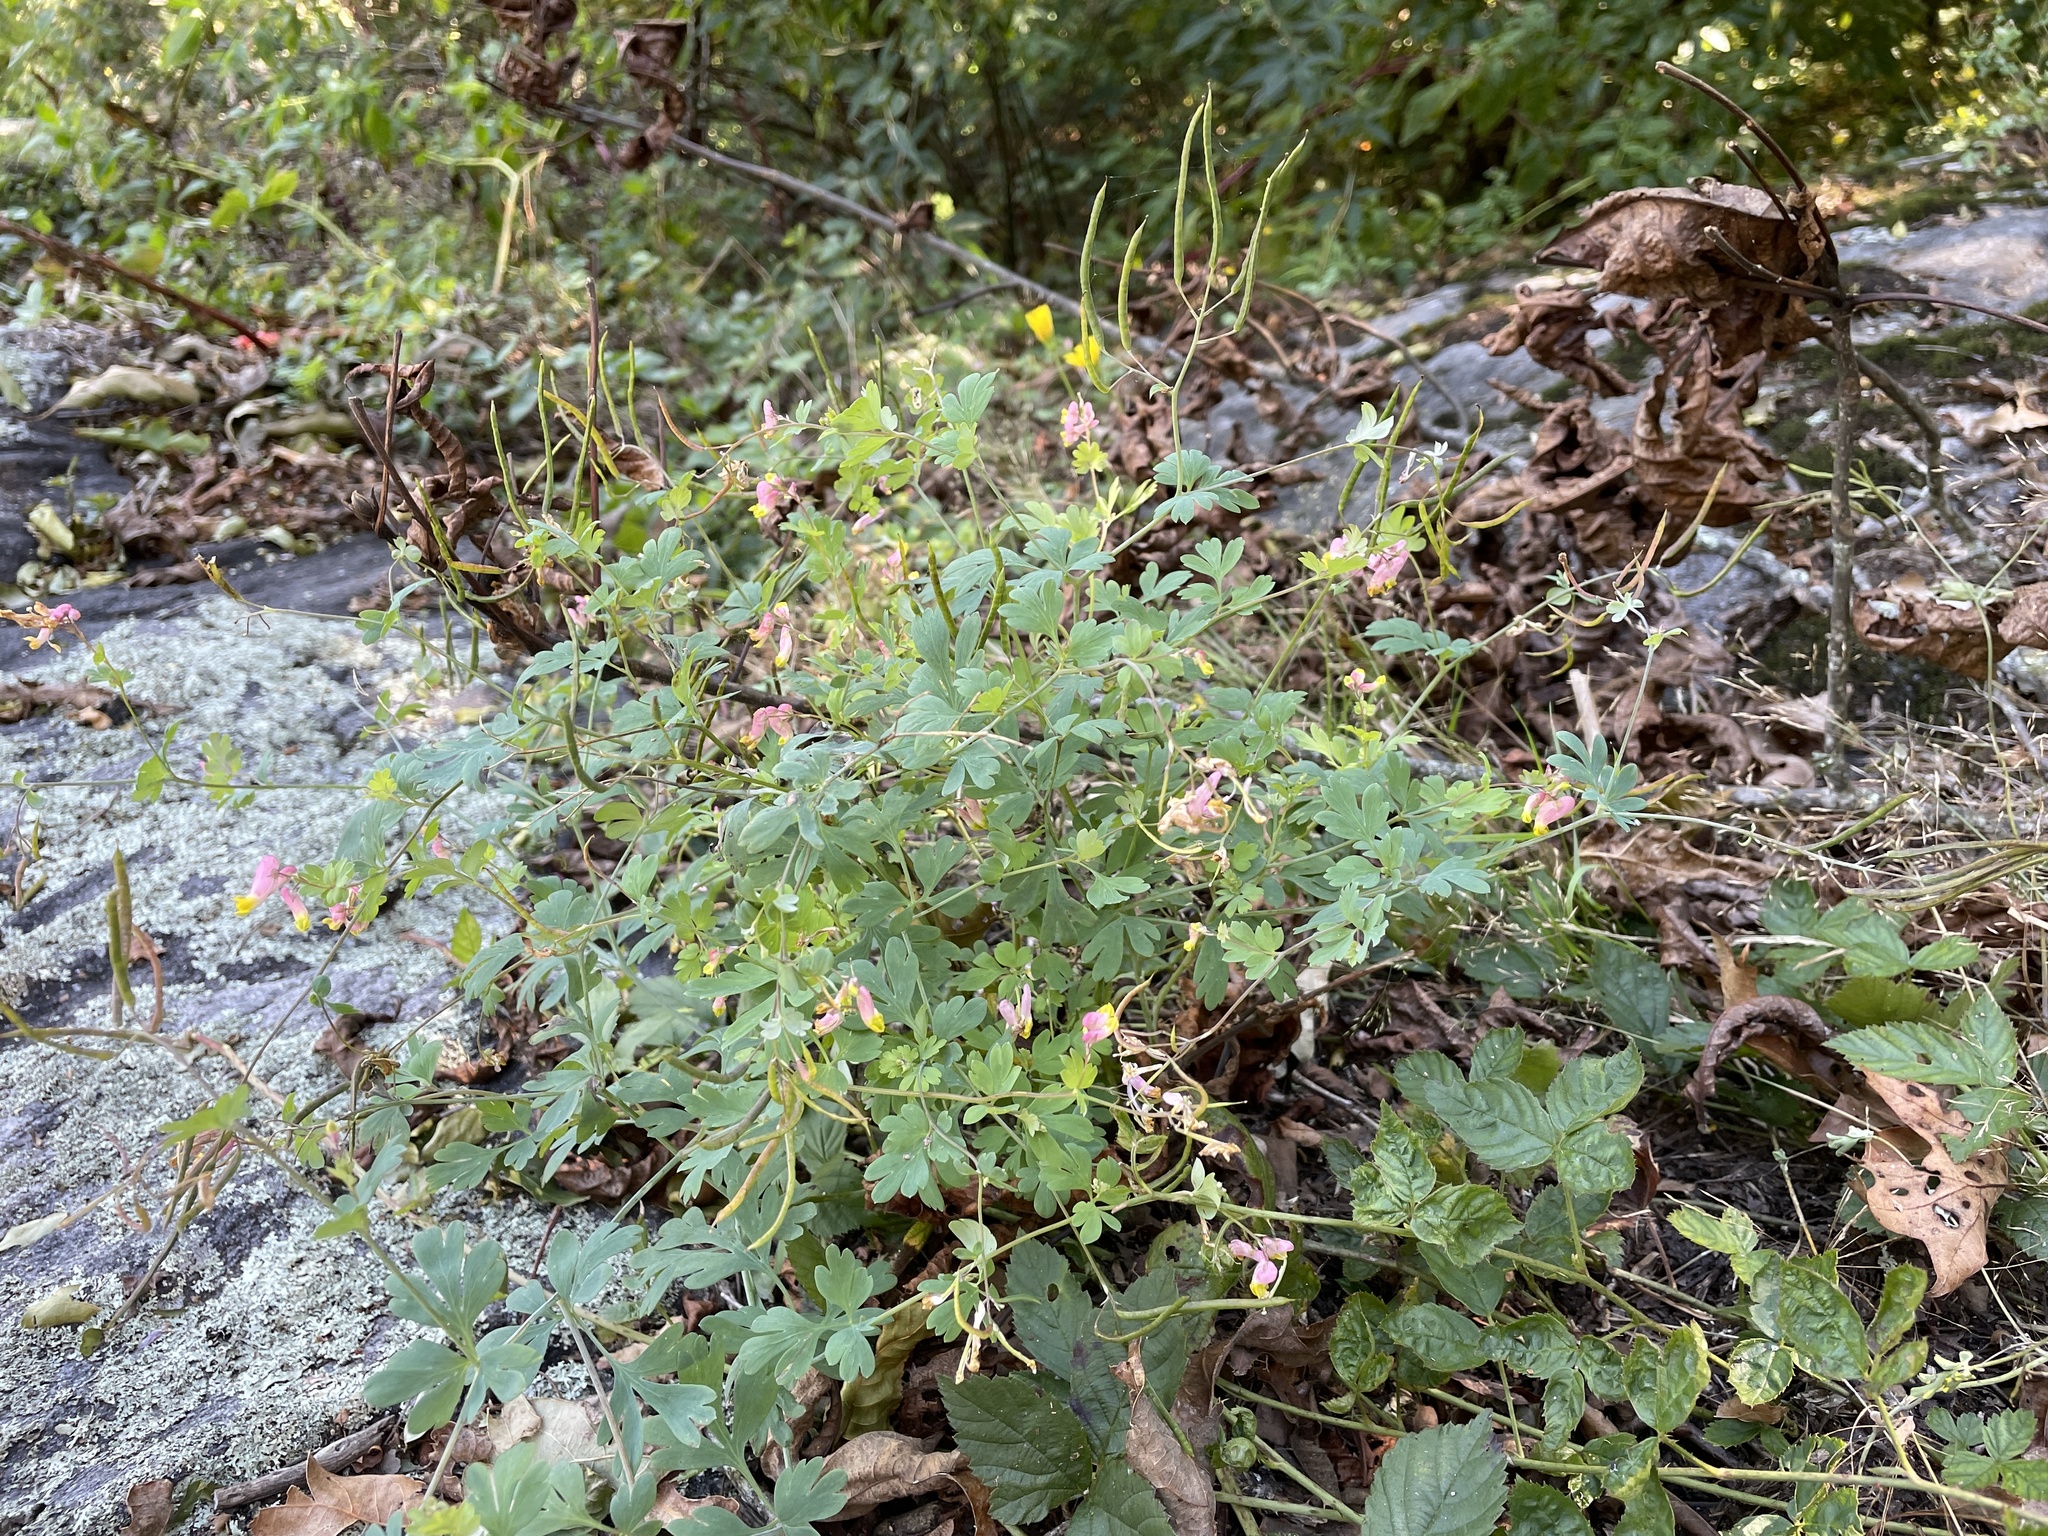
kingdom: Plantae
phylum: Tracheophyta
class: Magnoliopsida
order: Ranunculales
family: Papaveraceae
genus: Capnoides
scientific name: Capnoides sempervirens
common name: Rock harlequin
